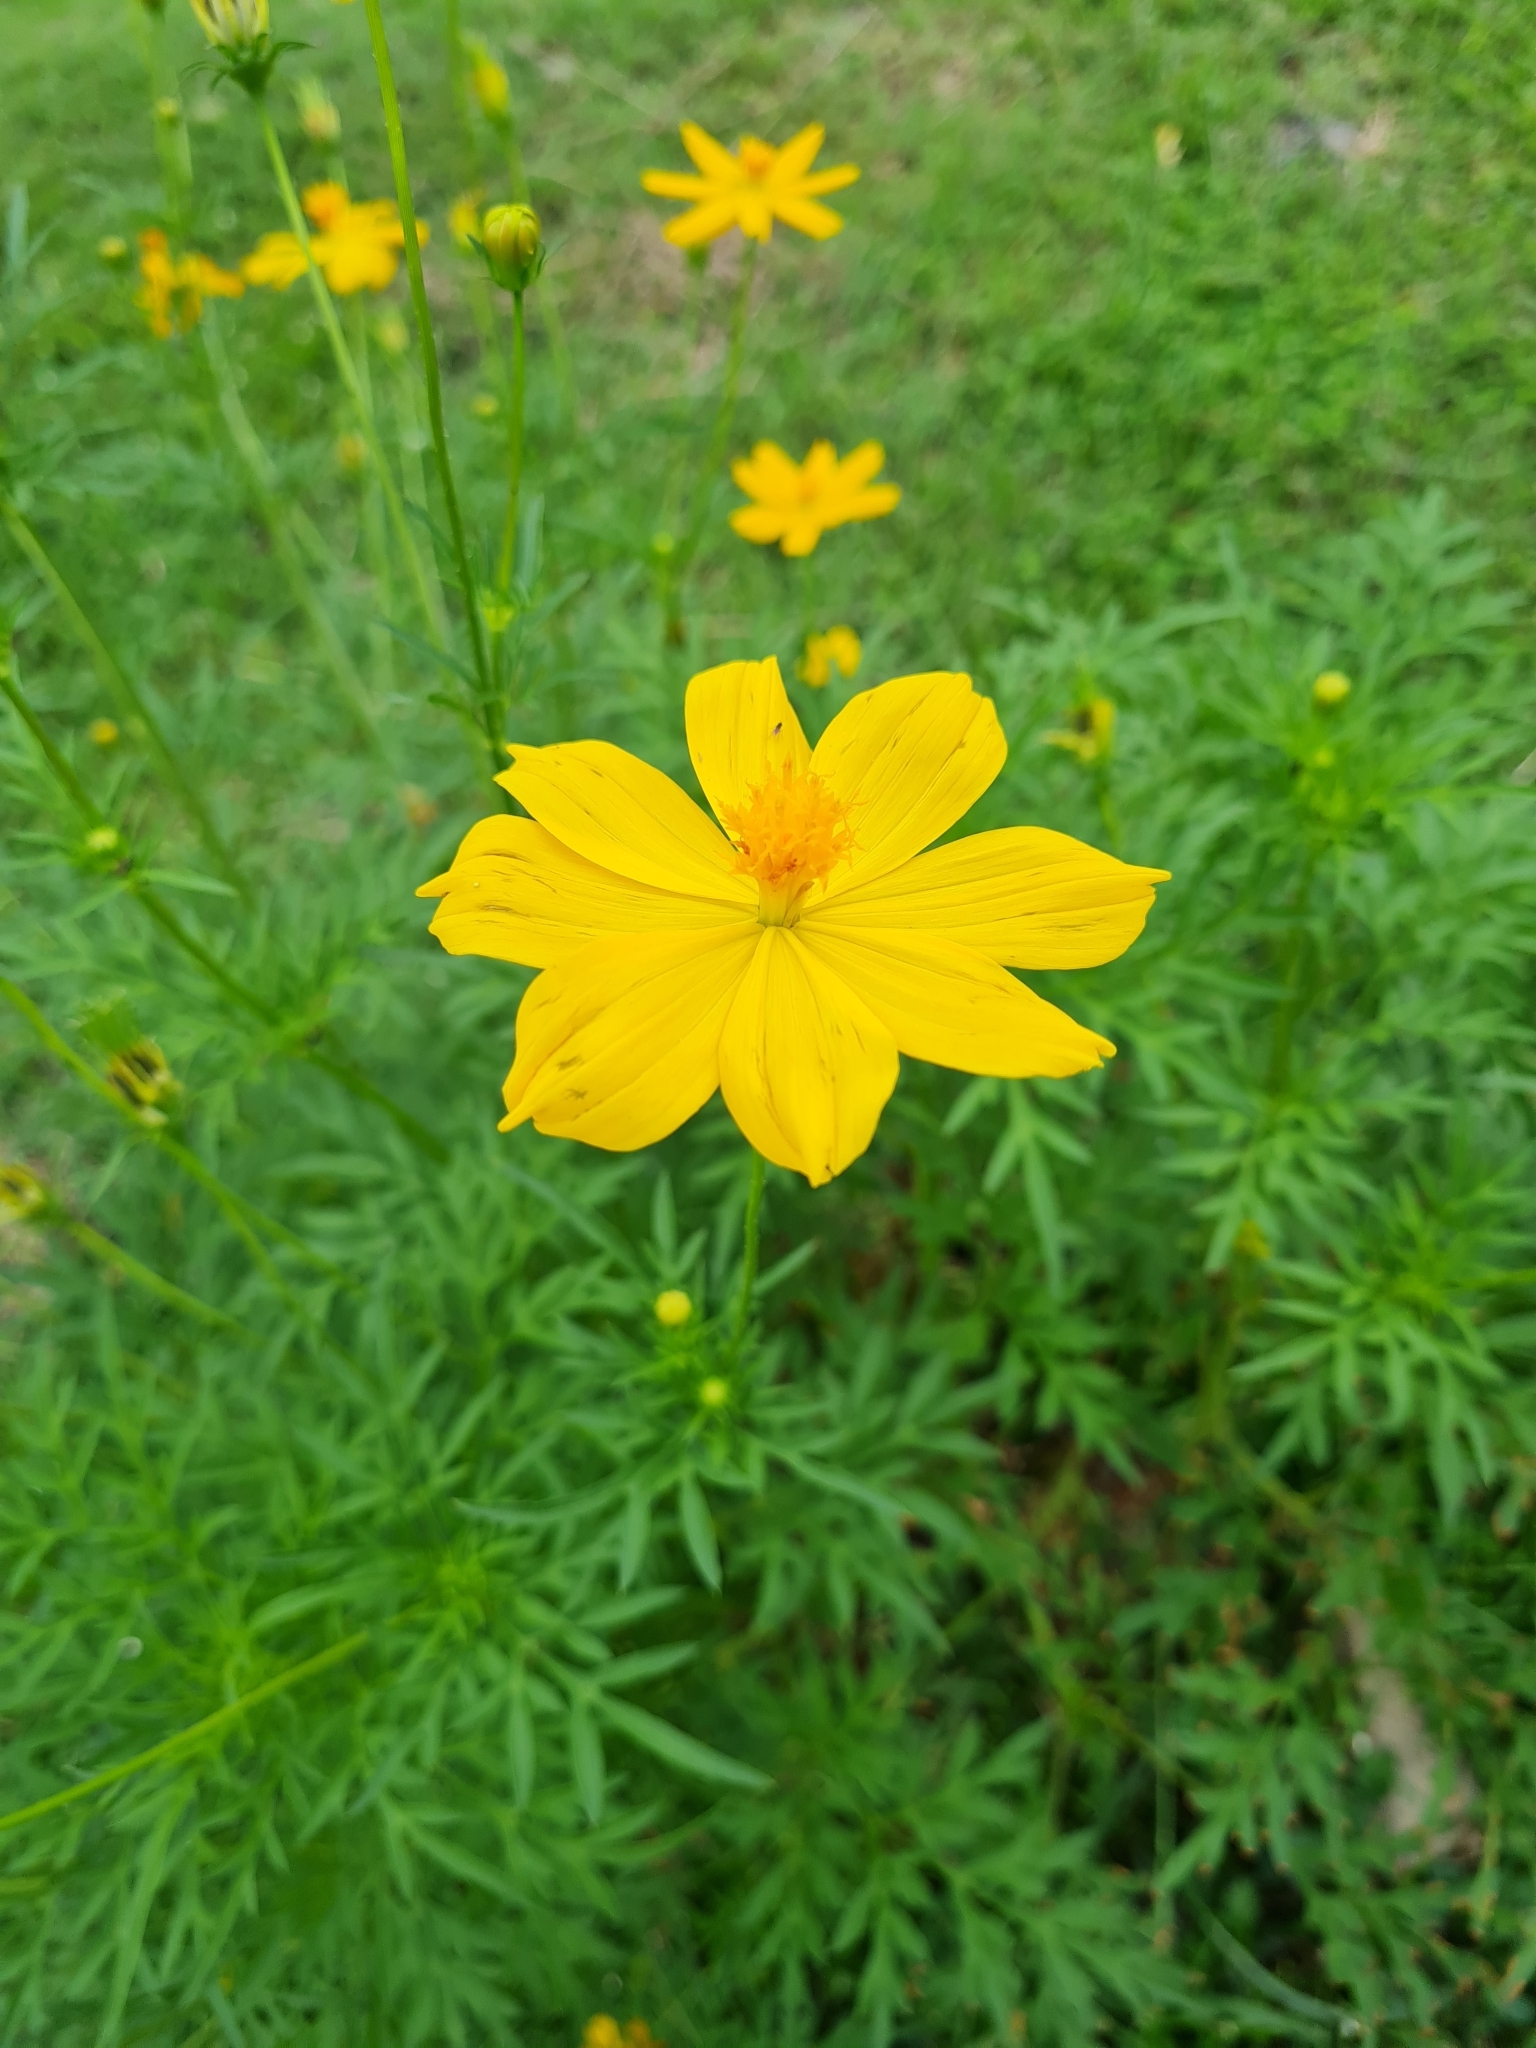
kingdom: Plantae
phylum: Tracheophyta
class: Magnoliopsida
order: Asterales
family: Asteraceae
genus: Cosmos
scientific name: Cosmos sulphureus
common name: Sulphur cosmos
